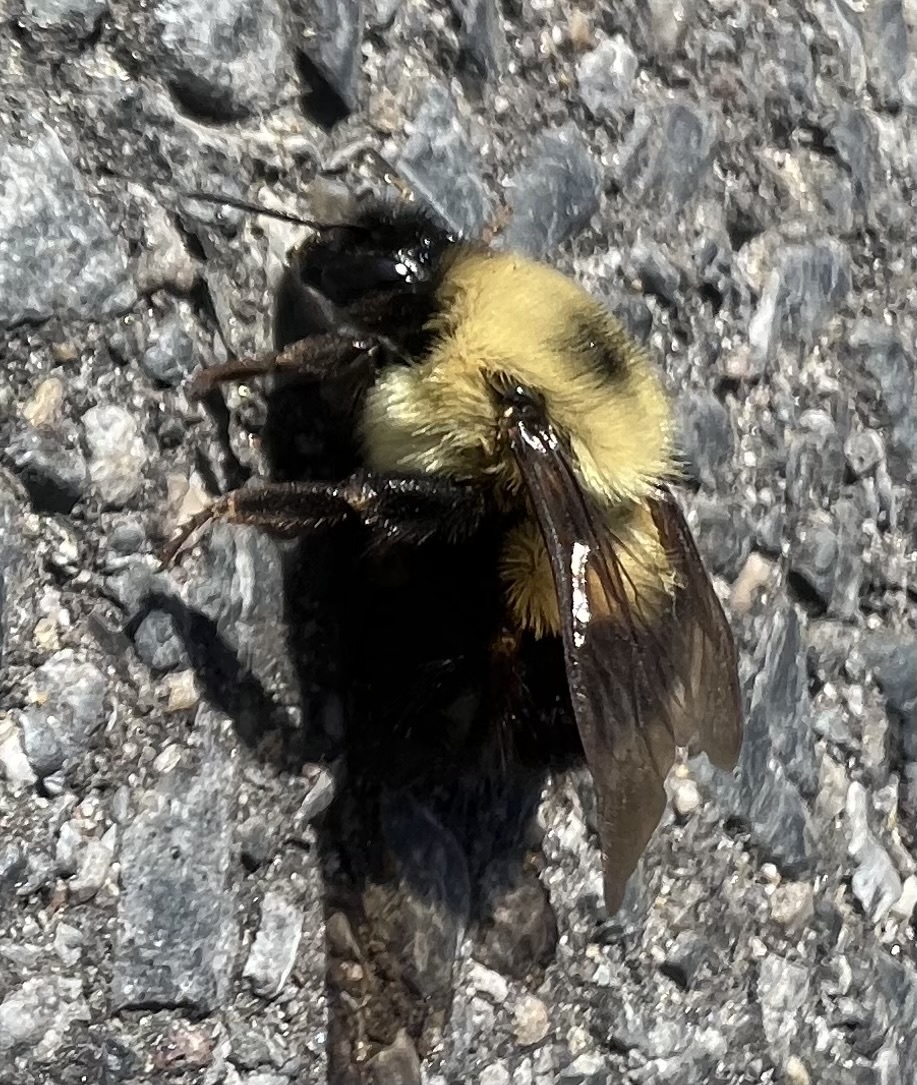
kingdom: Animalia
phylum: Arthropoda
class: Insecta
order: Hymenoptera
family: Apidae
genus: Bombus
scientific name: Bombus bimaculatus
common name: Two-spotted bumble bee
